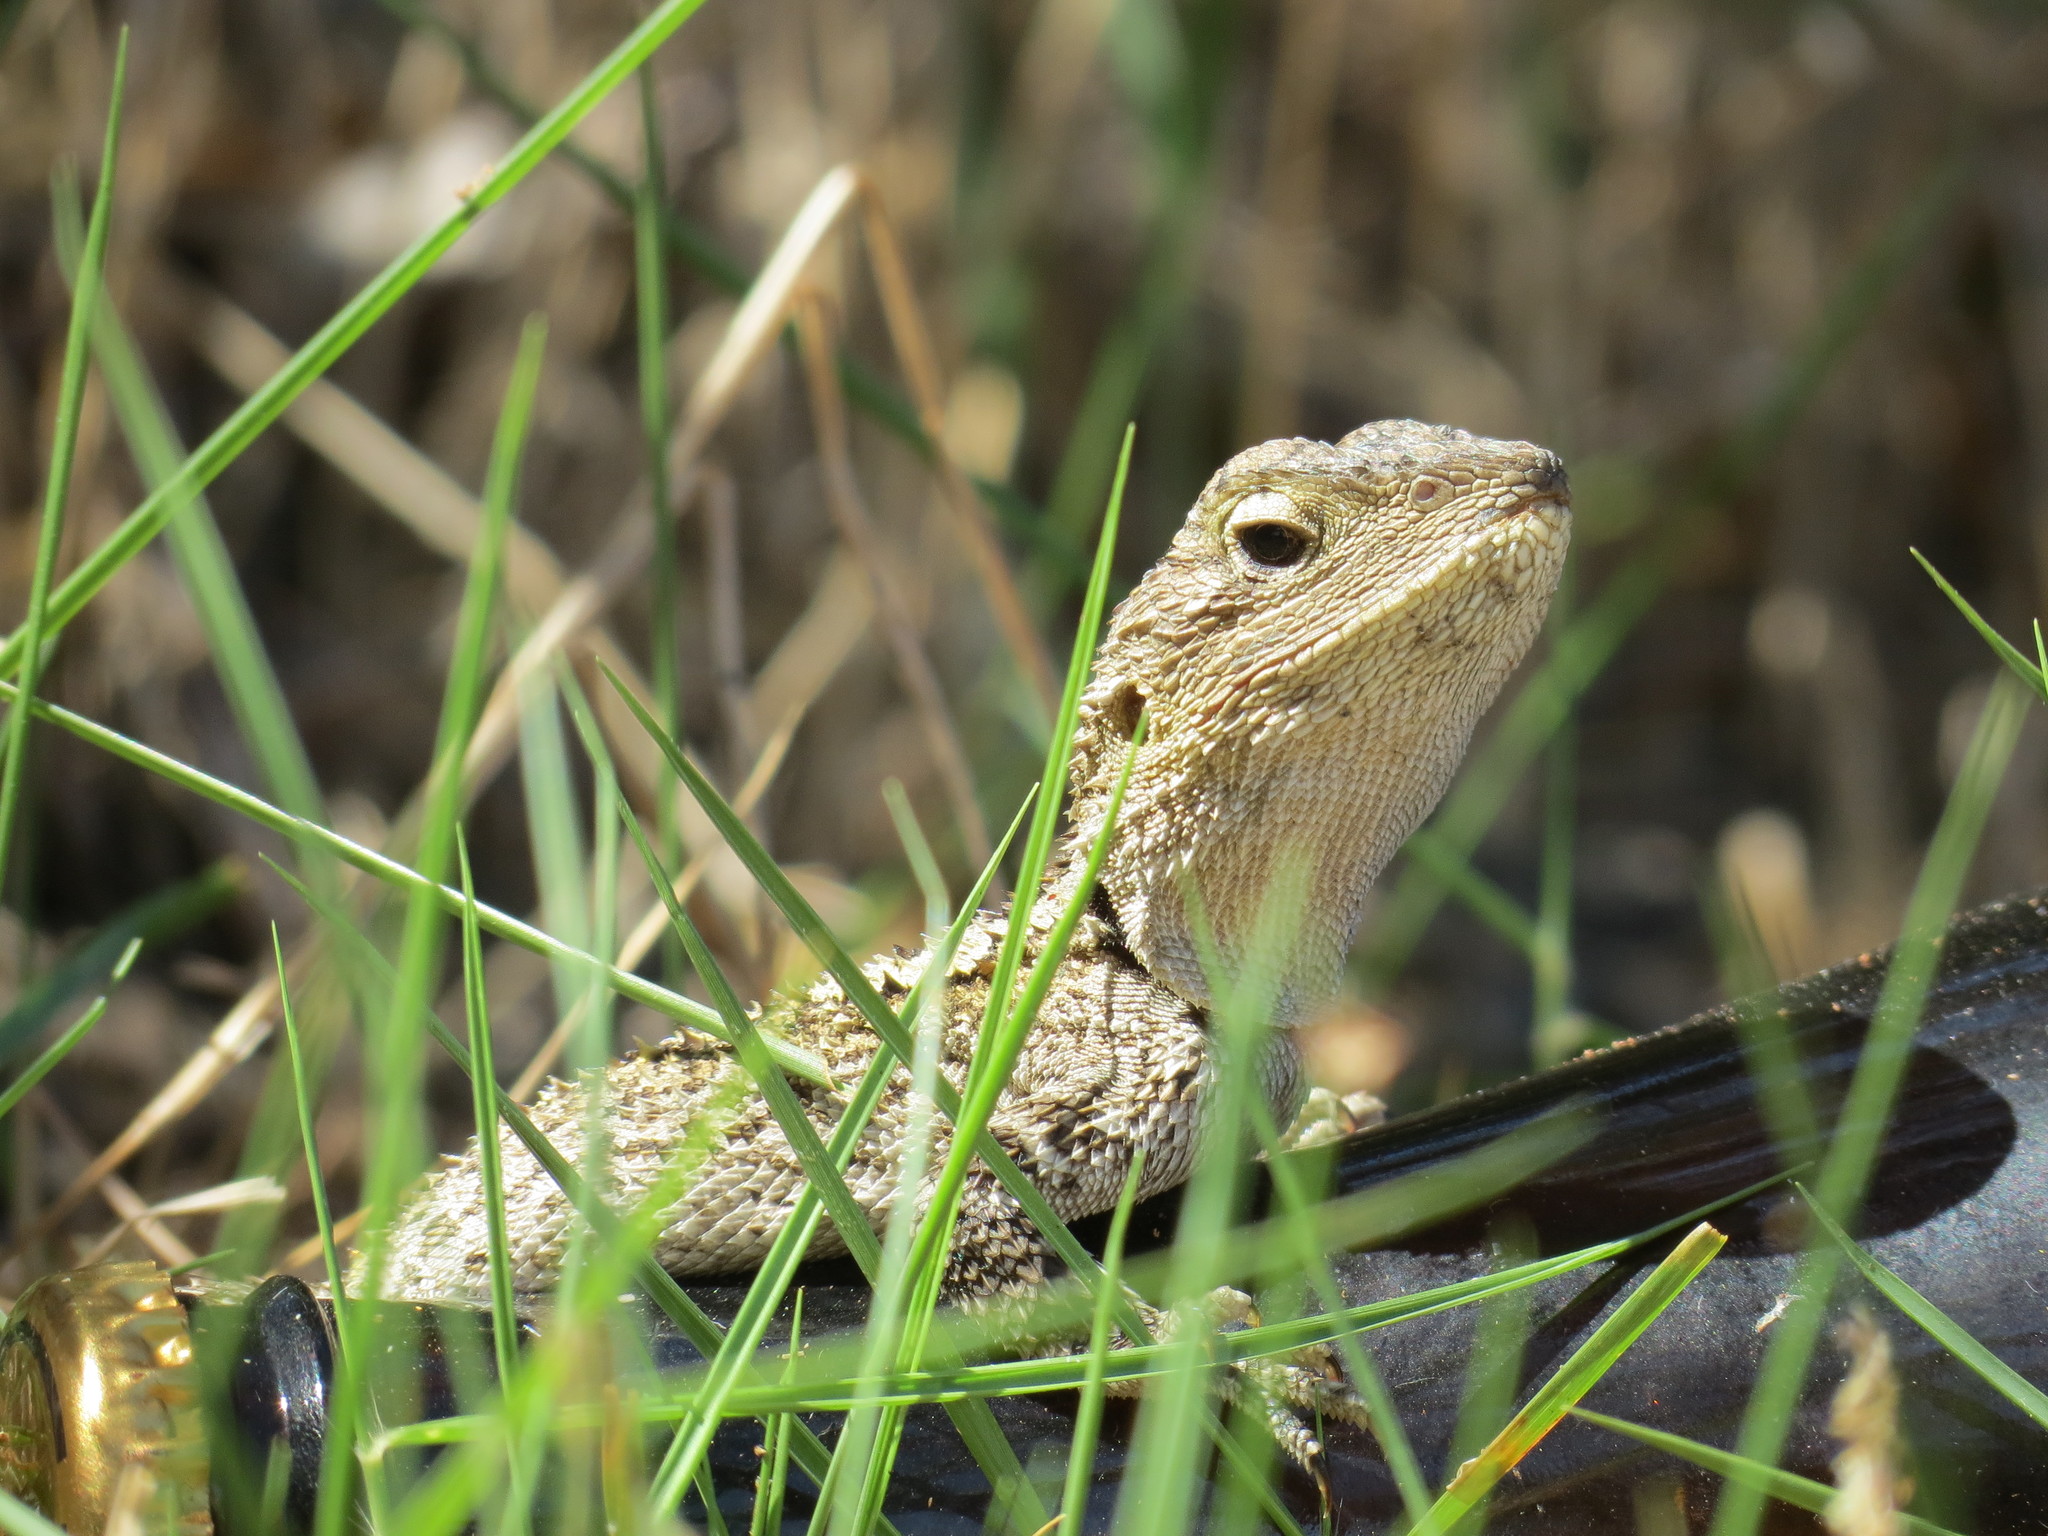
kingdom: Animalia
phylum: Chordata
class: Squamata
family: Agamidae
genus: Amphibolurus
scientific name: Amphibolurus muricatus
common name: Jacky lizard
